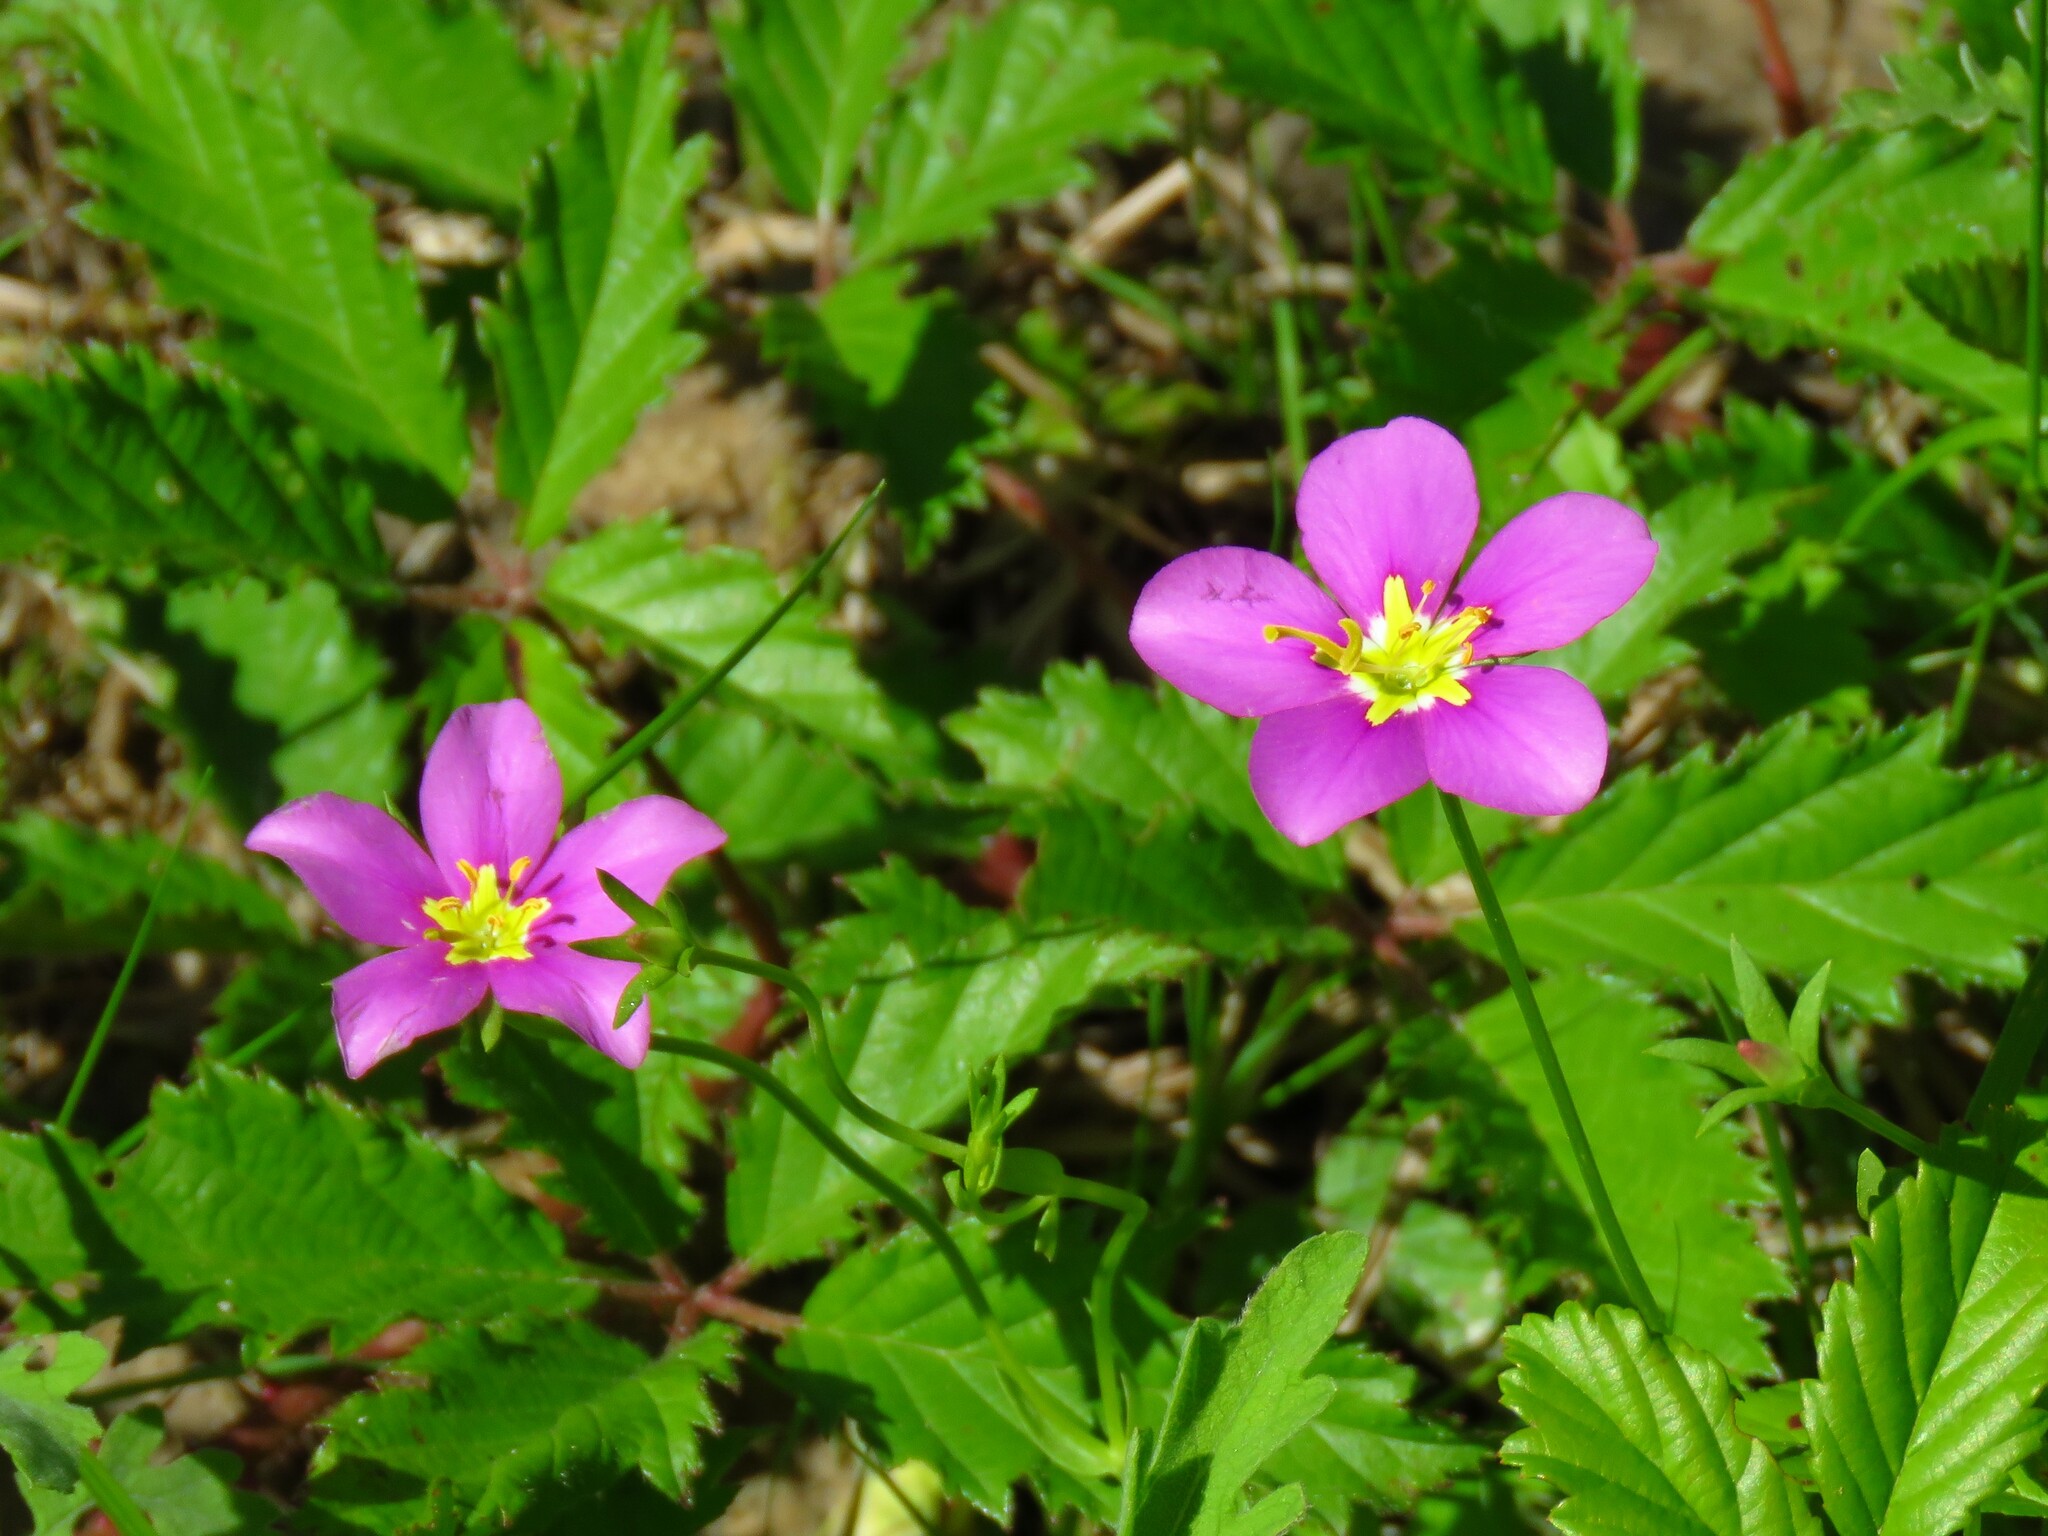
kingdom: Plantae
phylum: Tracheophyta
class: Magnoliopsida
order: Gentianales
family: Gentianaceae
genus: Sabatia
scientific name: Sabatia campestris
